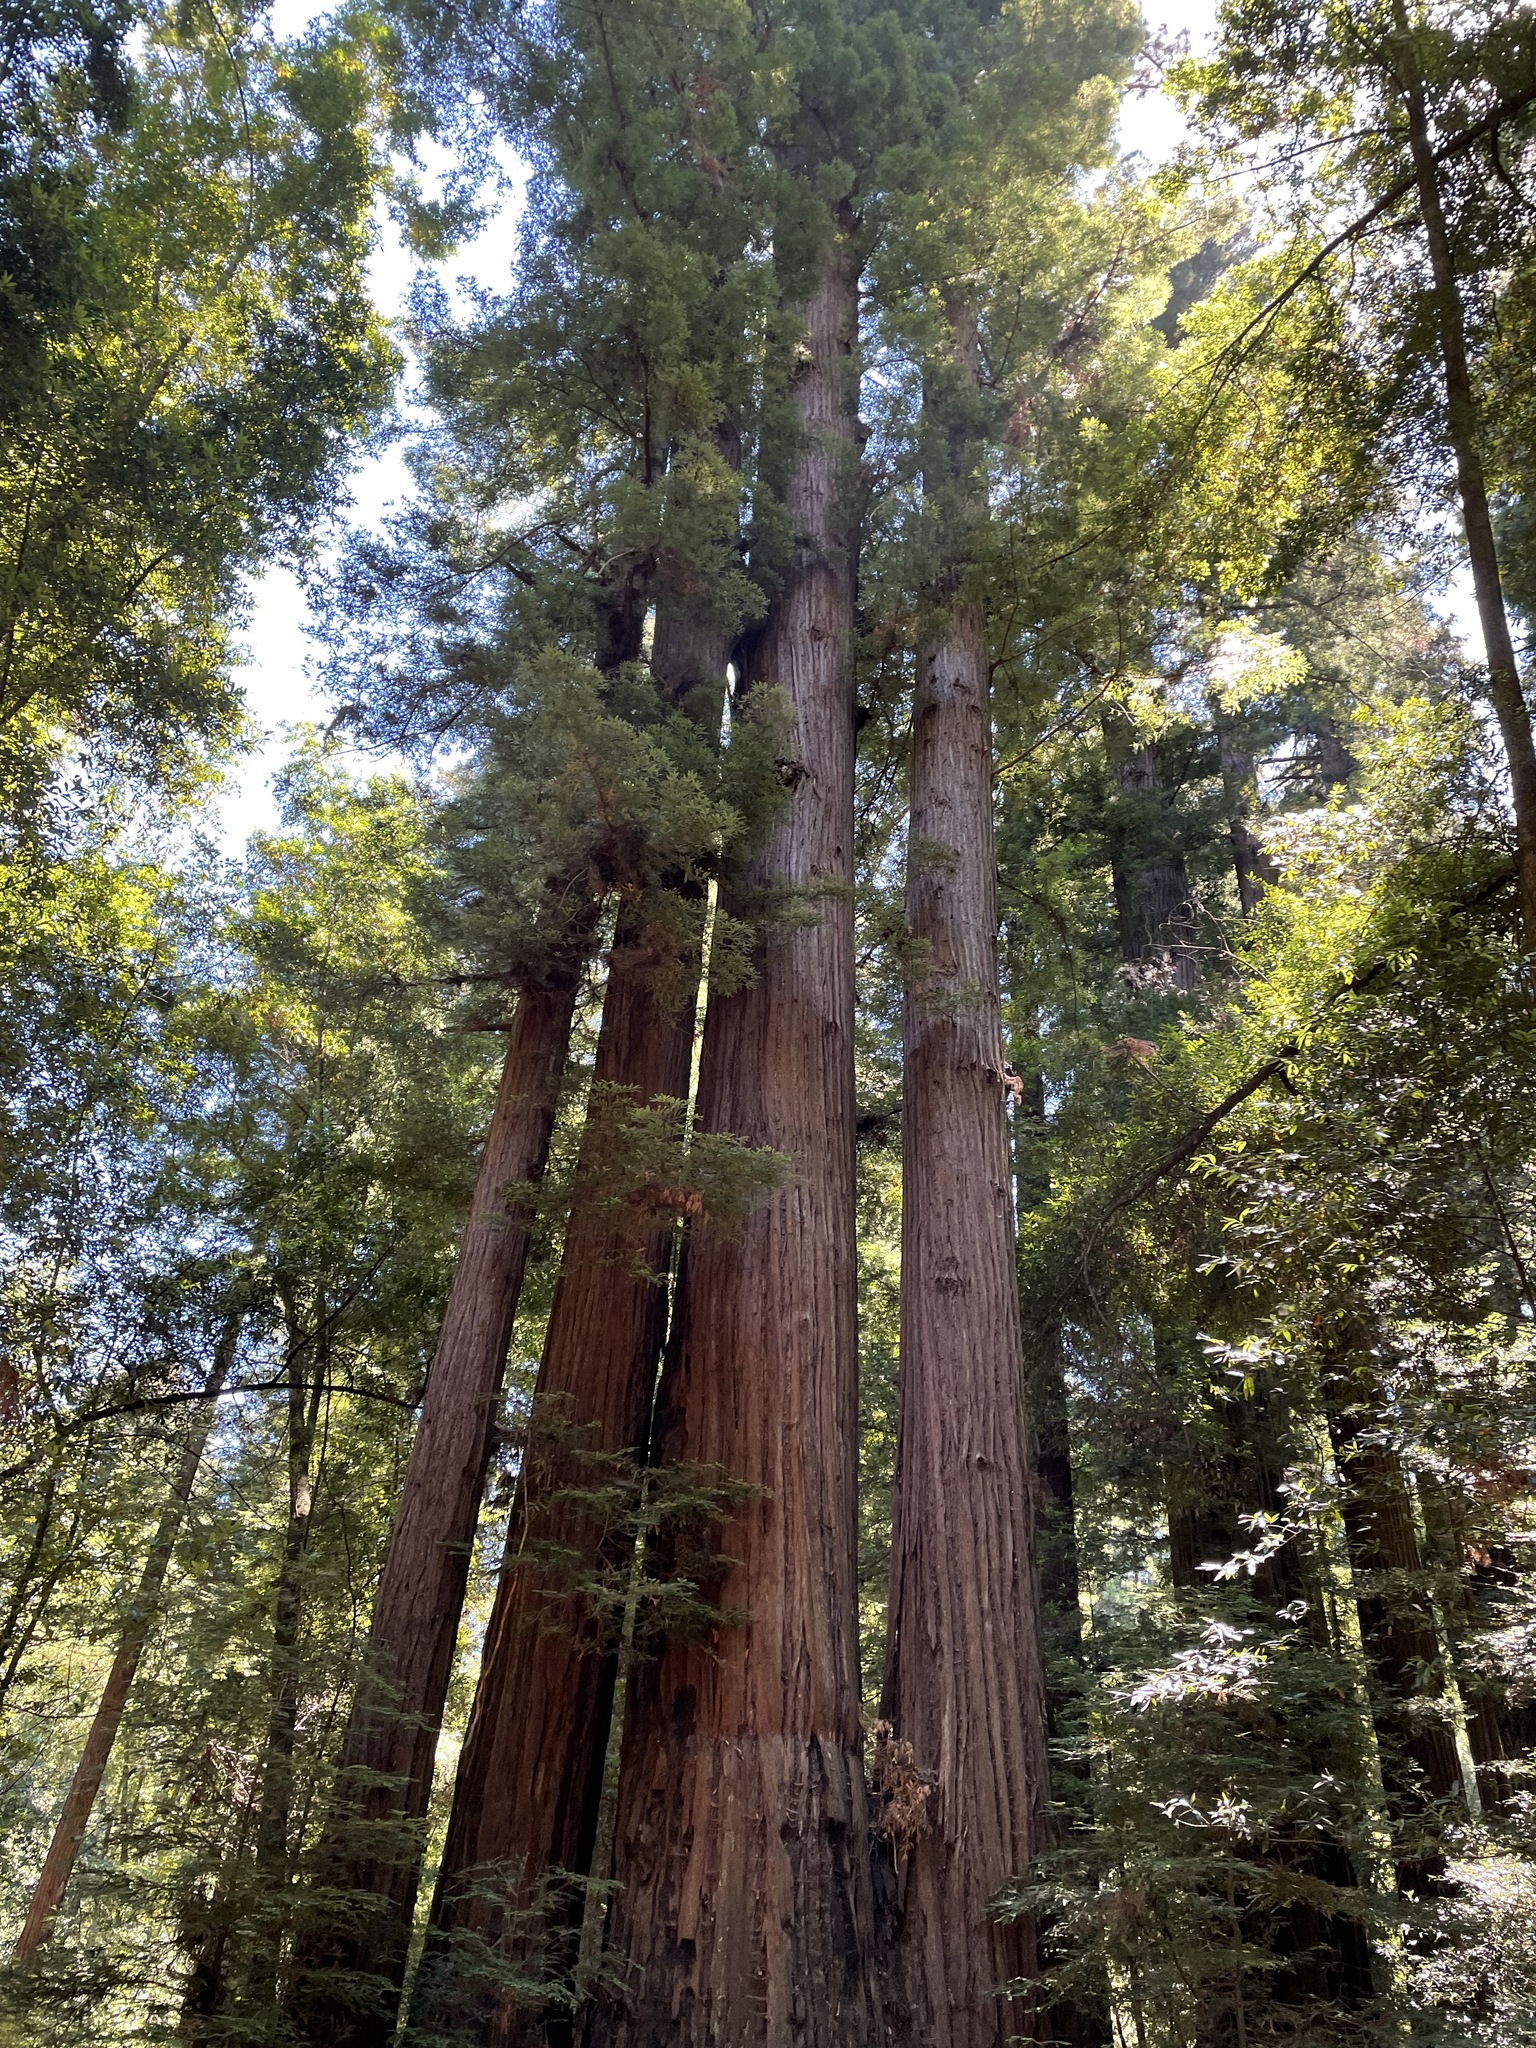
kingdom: Plantae
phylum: Tracheophyta
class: Pinopsida
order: Pinales
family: Cupressaceae
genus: Sequoia
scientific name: Sequoia sempervirens
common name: Coast redwood
